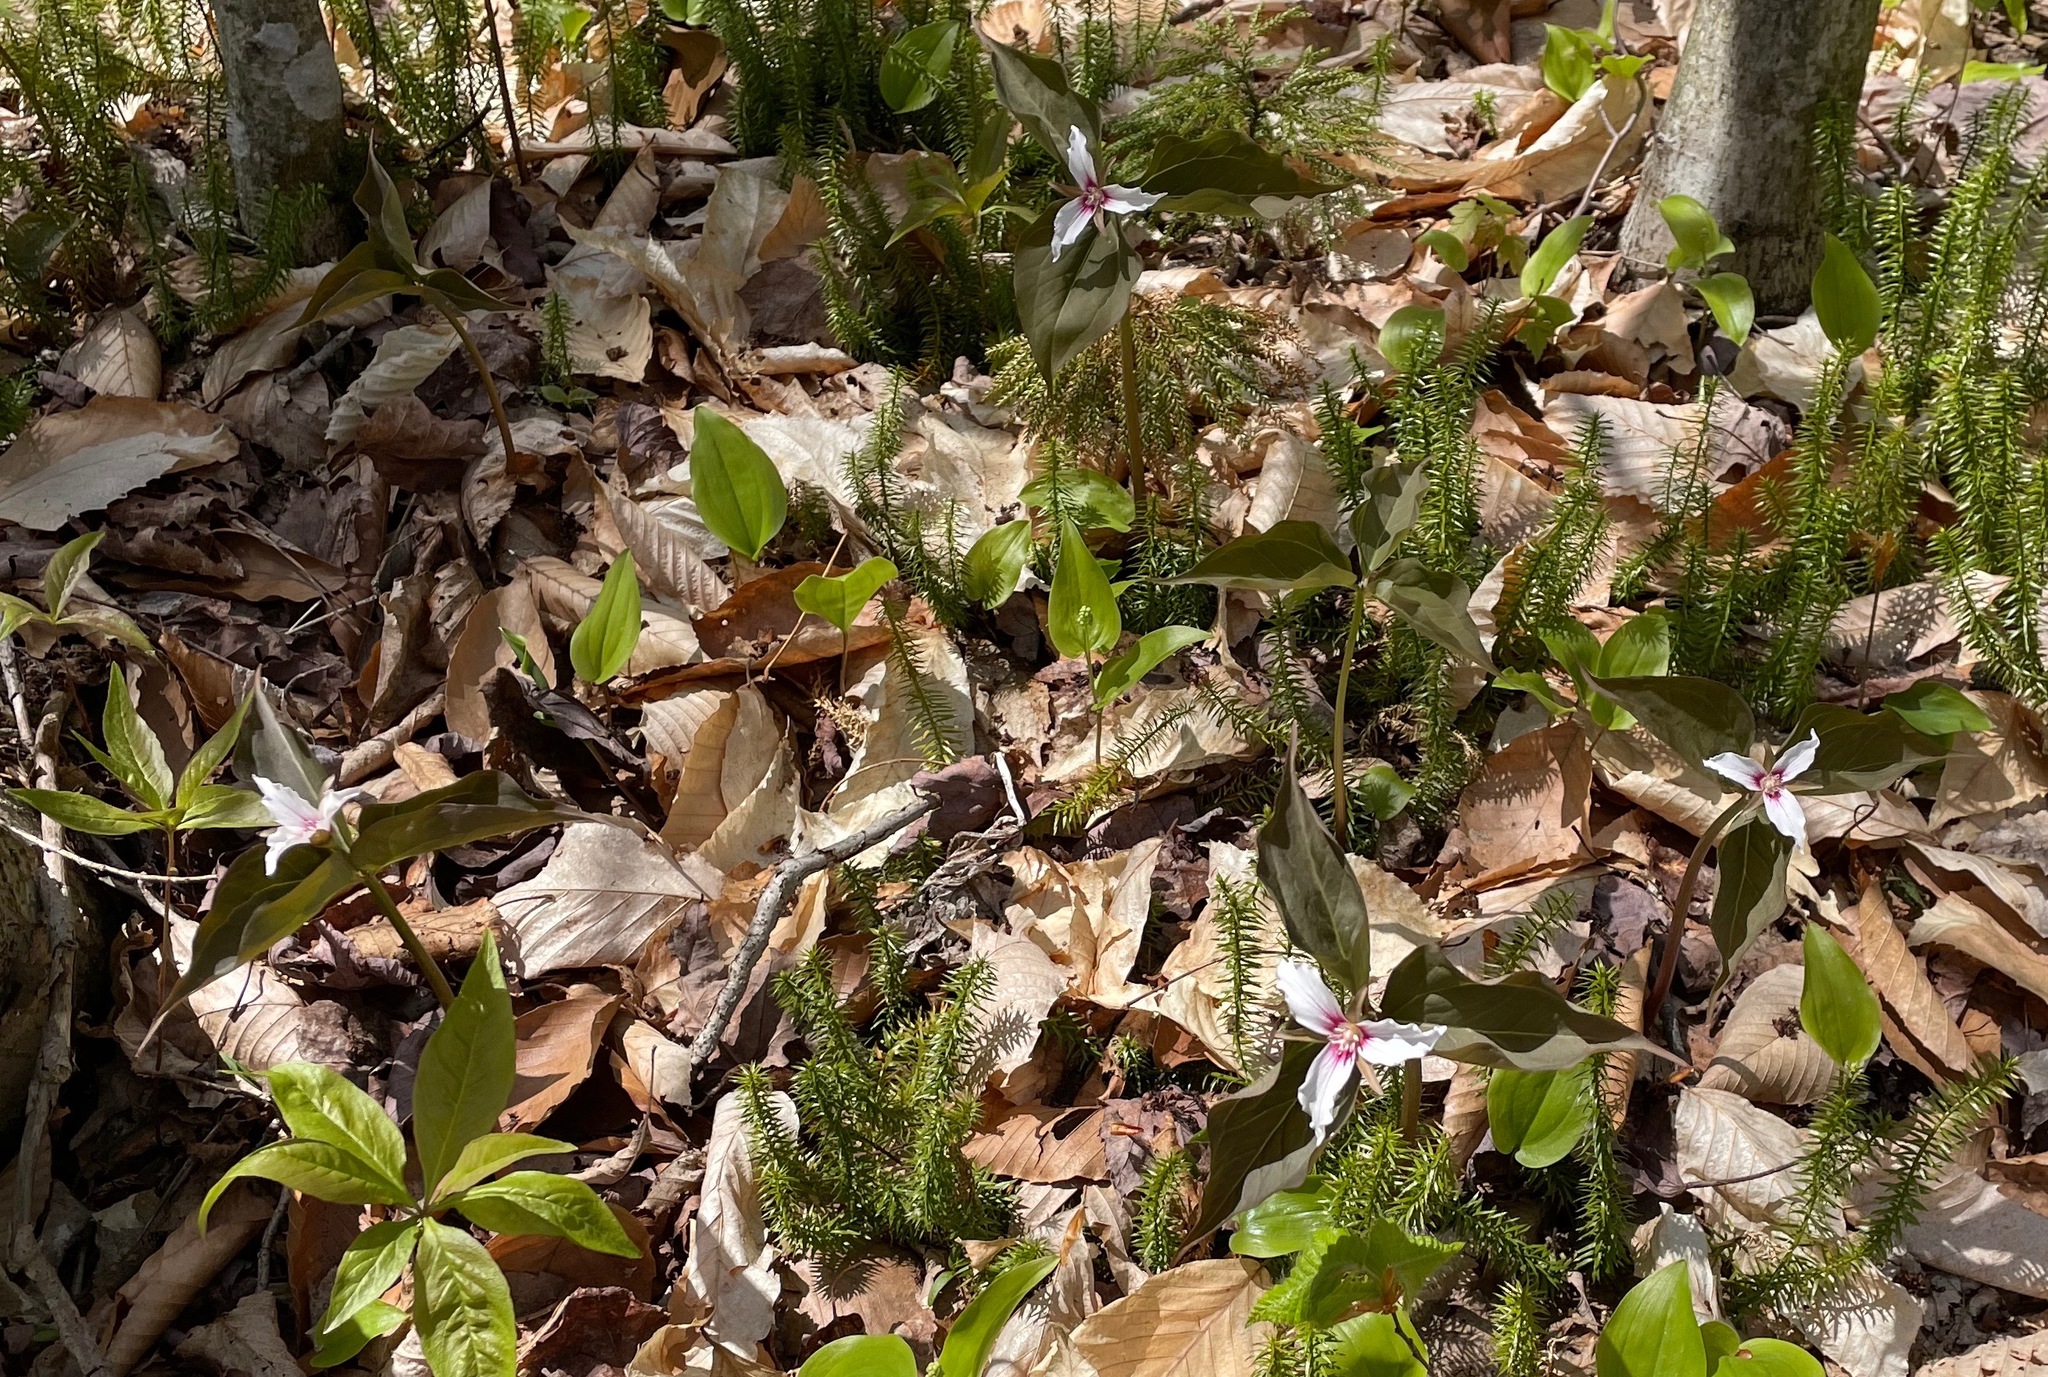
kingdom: Plantae
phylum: Tracheophyta
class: Liliopsida
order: Liliales
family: Melanthiaceae
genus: Trillium
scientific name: Trillium undulatum
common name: Paint trillium
